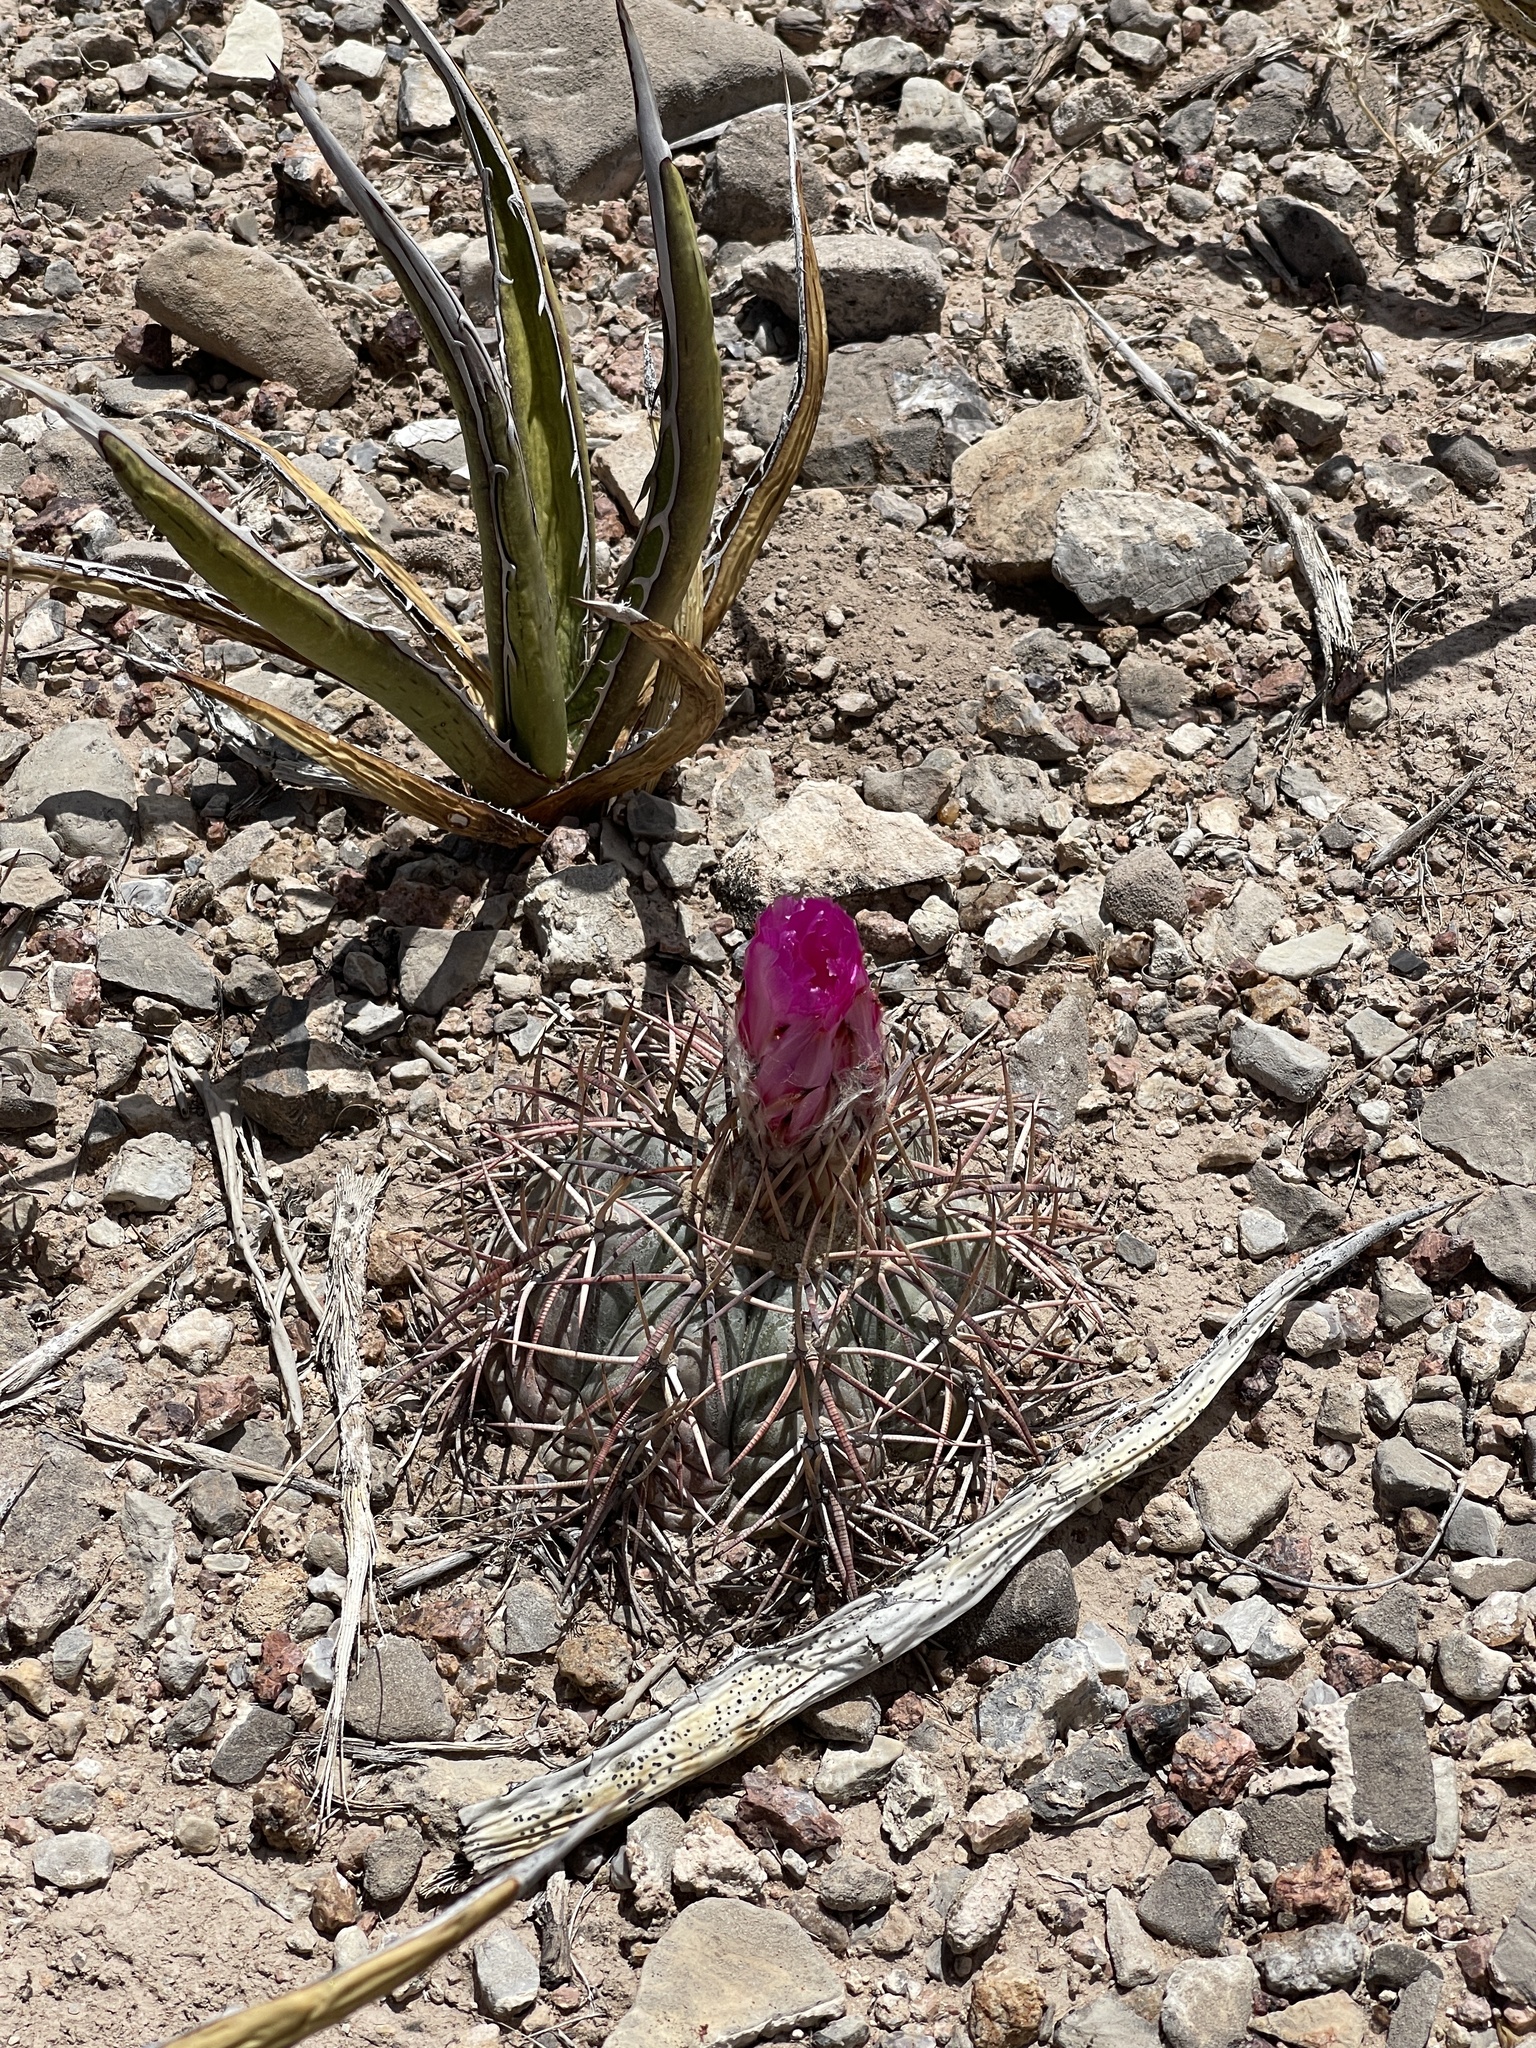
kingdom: Plantae
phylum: Tracheophyta
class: Magnoliopsida
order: Caryophyllales
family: Cactaceae
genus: Echinocactus
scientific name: Echinocactus horizonthalonius
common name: Devilshead
